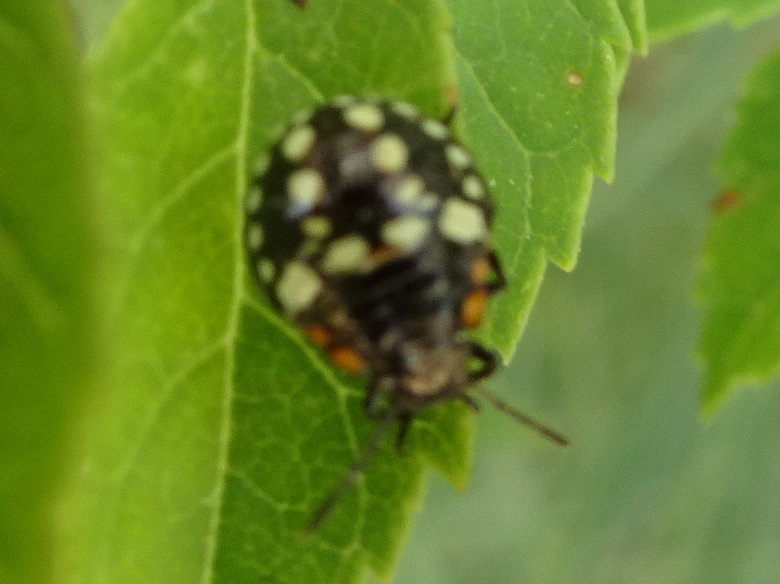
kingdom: Animalia
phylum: Arthropoda
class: Insecta
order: Hemiptera
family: Pentatomidae
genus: Nezara
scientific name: Nezara viridula
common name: Southern green stink bug
